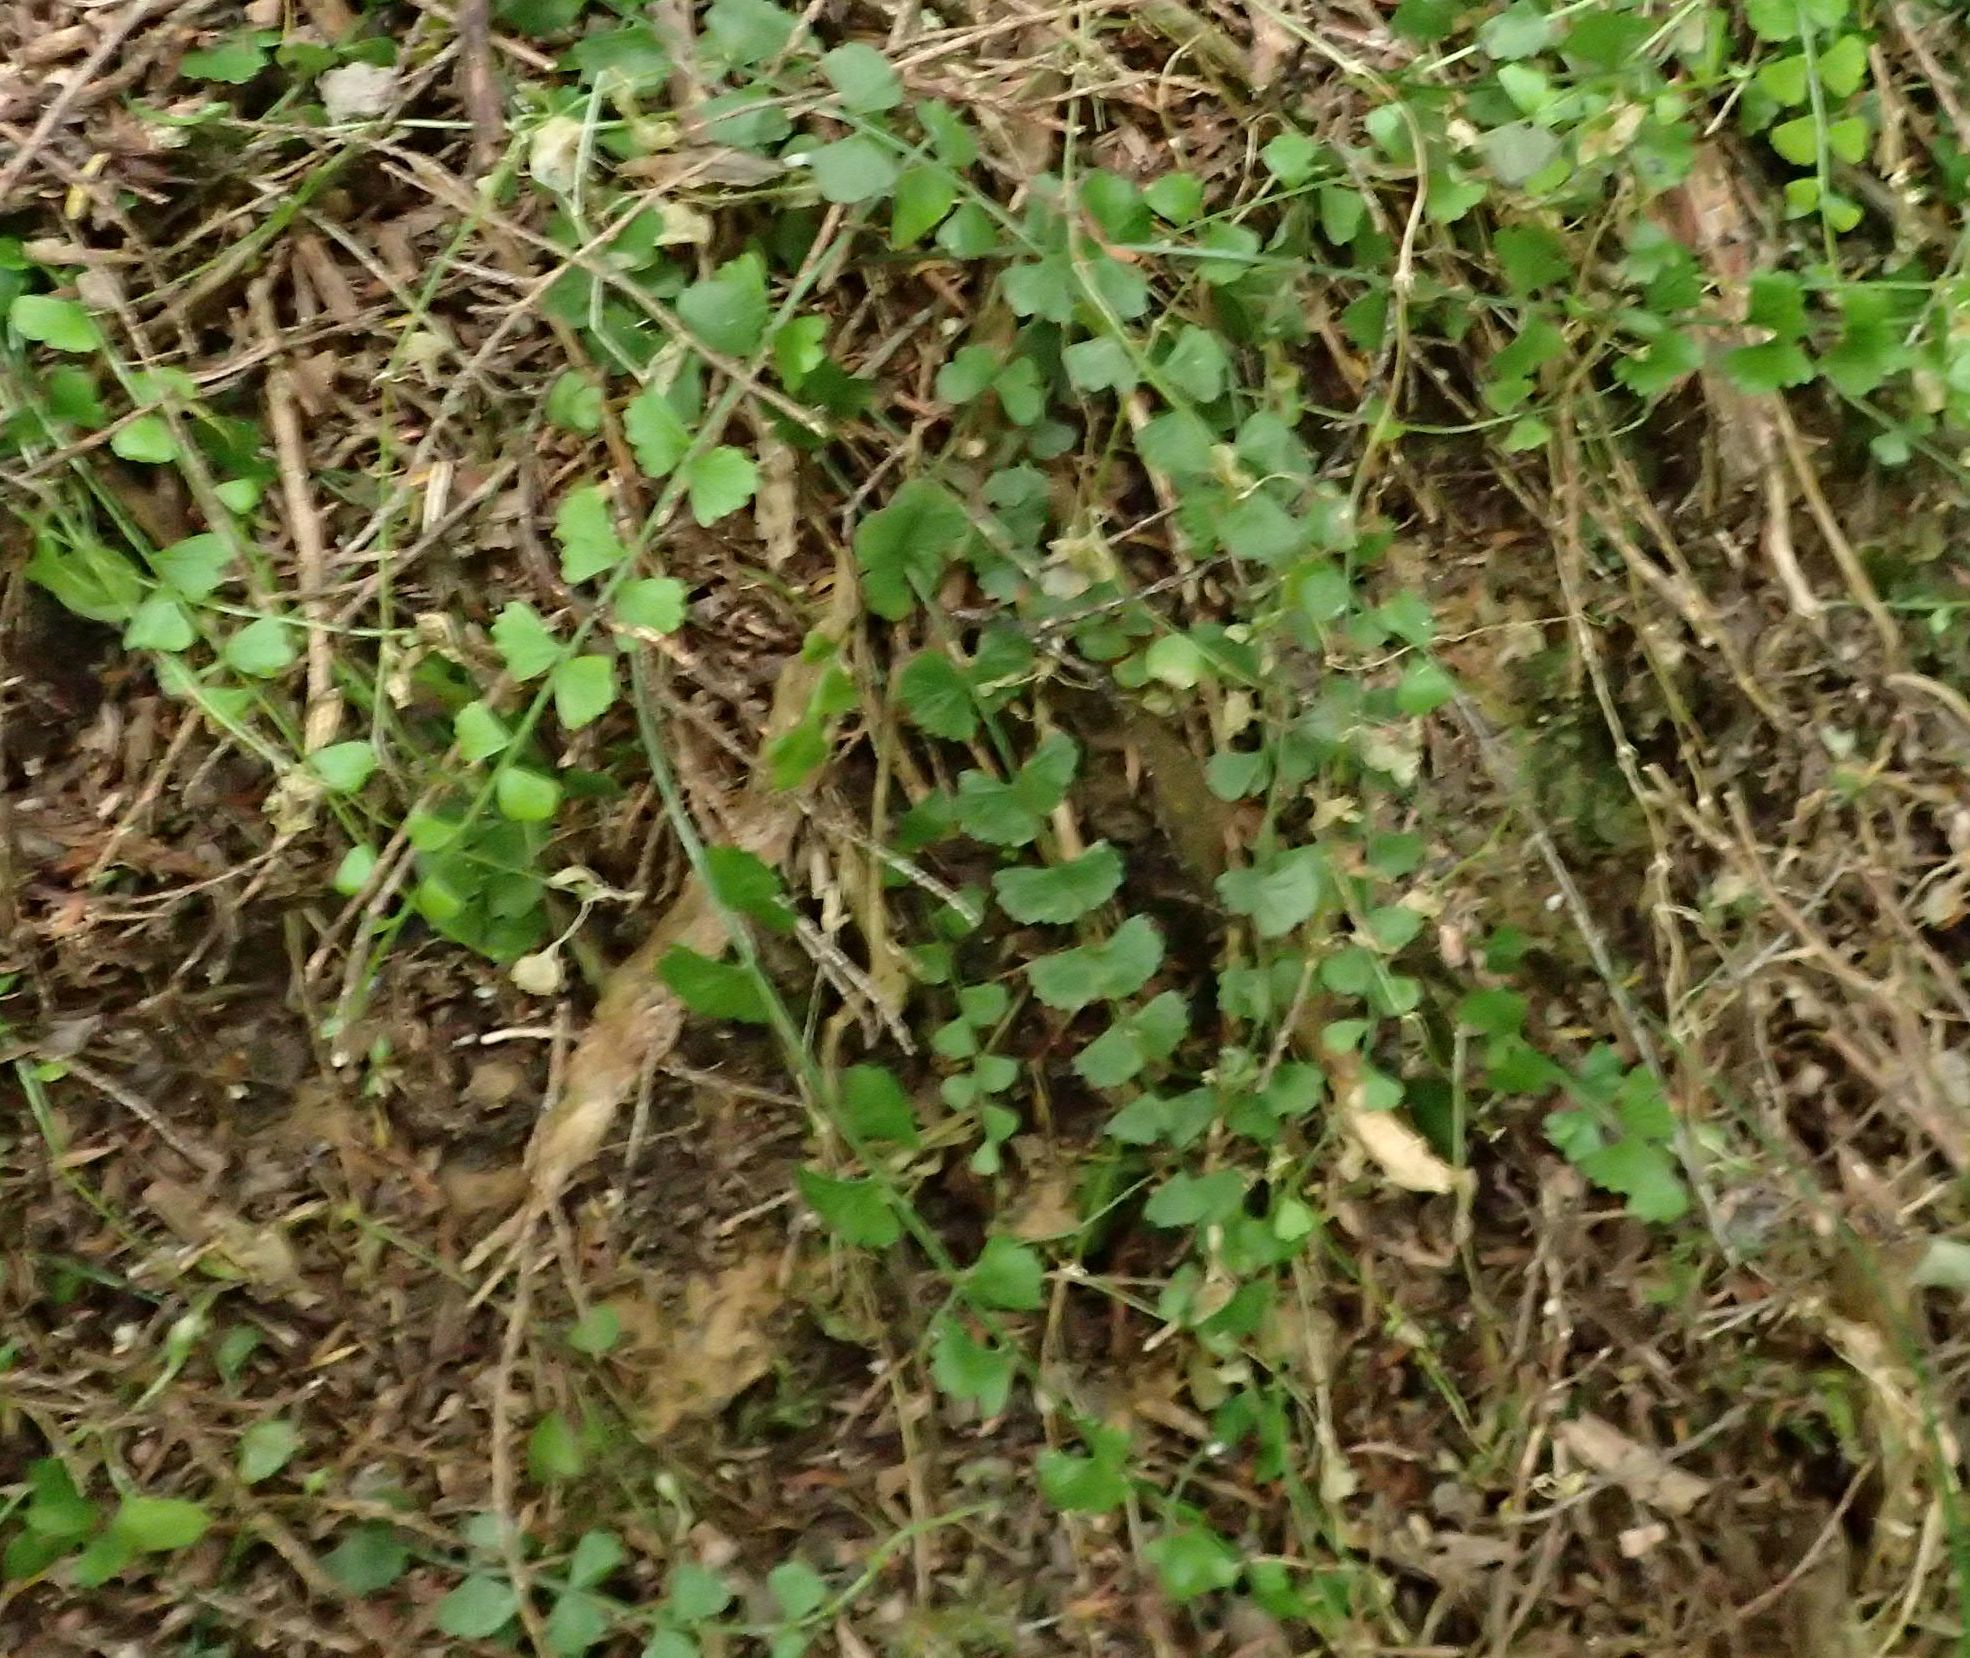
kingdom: Plantae
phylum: Tracheophyta
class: Polypodiopsida
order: Polypodiales
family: Aspleniaceae
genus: Asplenium
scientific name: Asplenium flabellifolium
